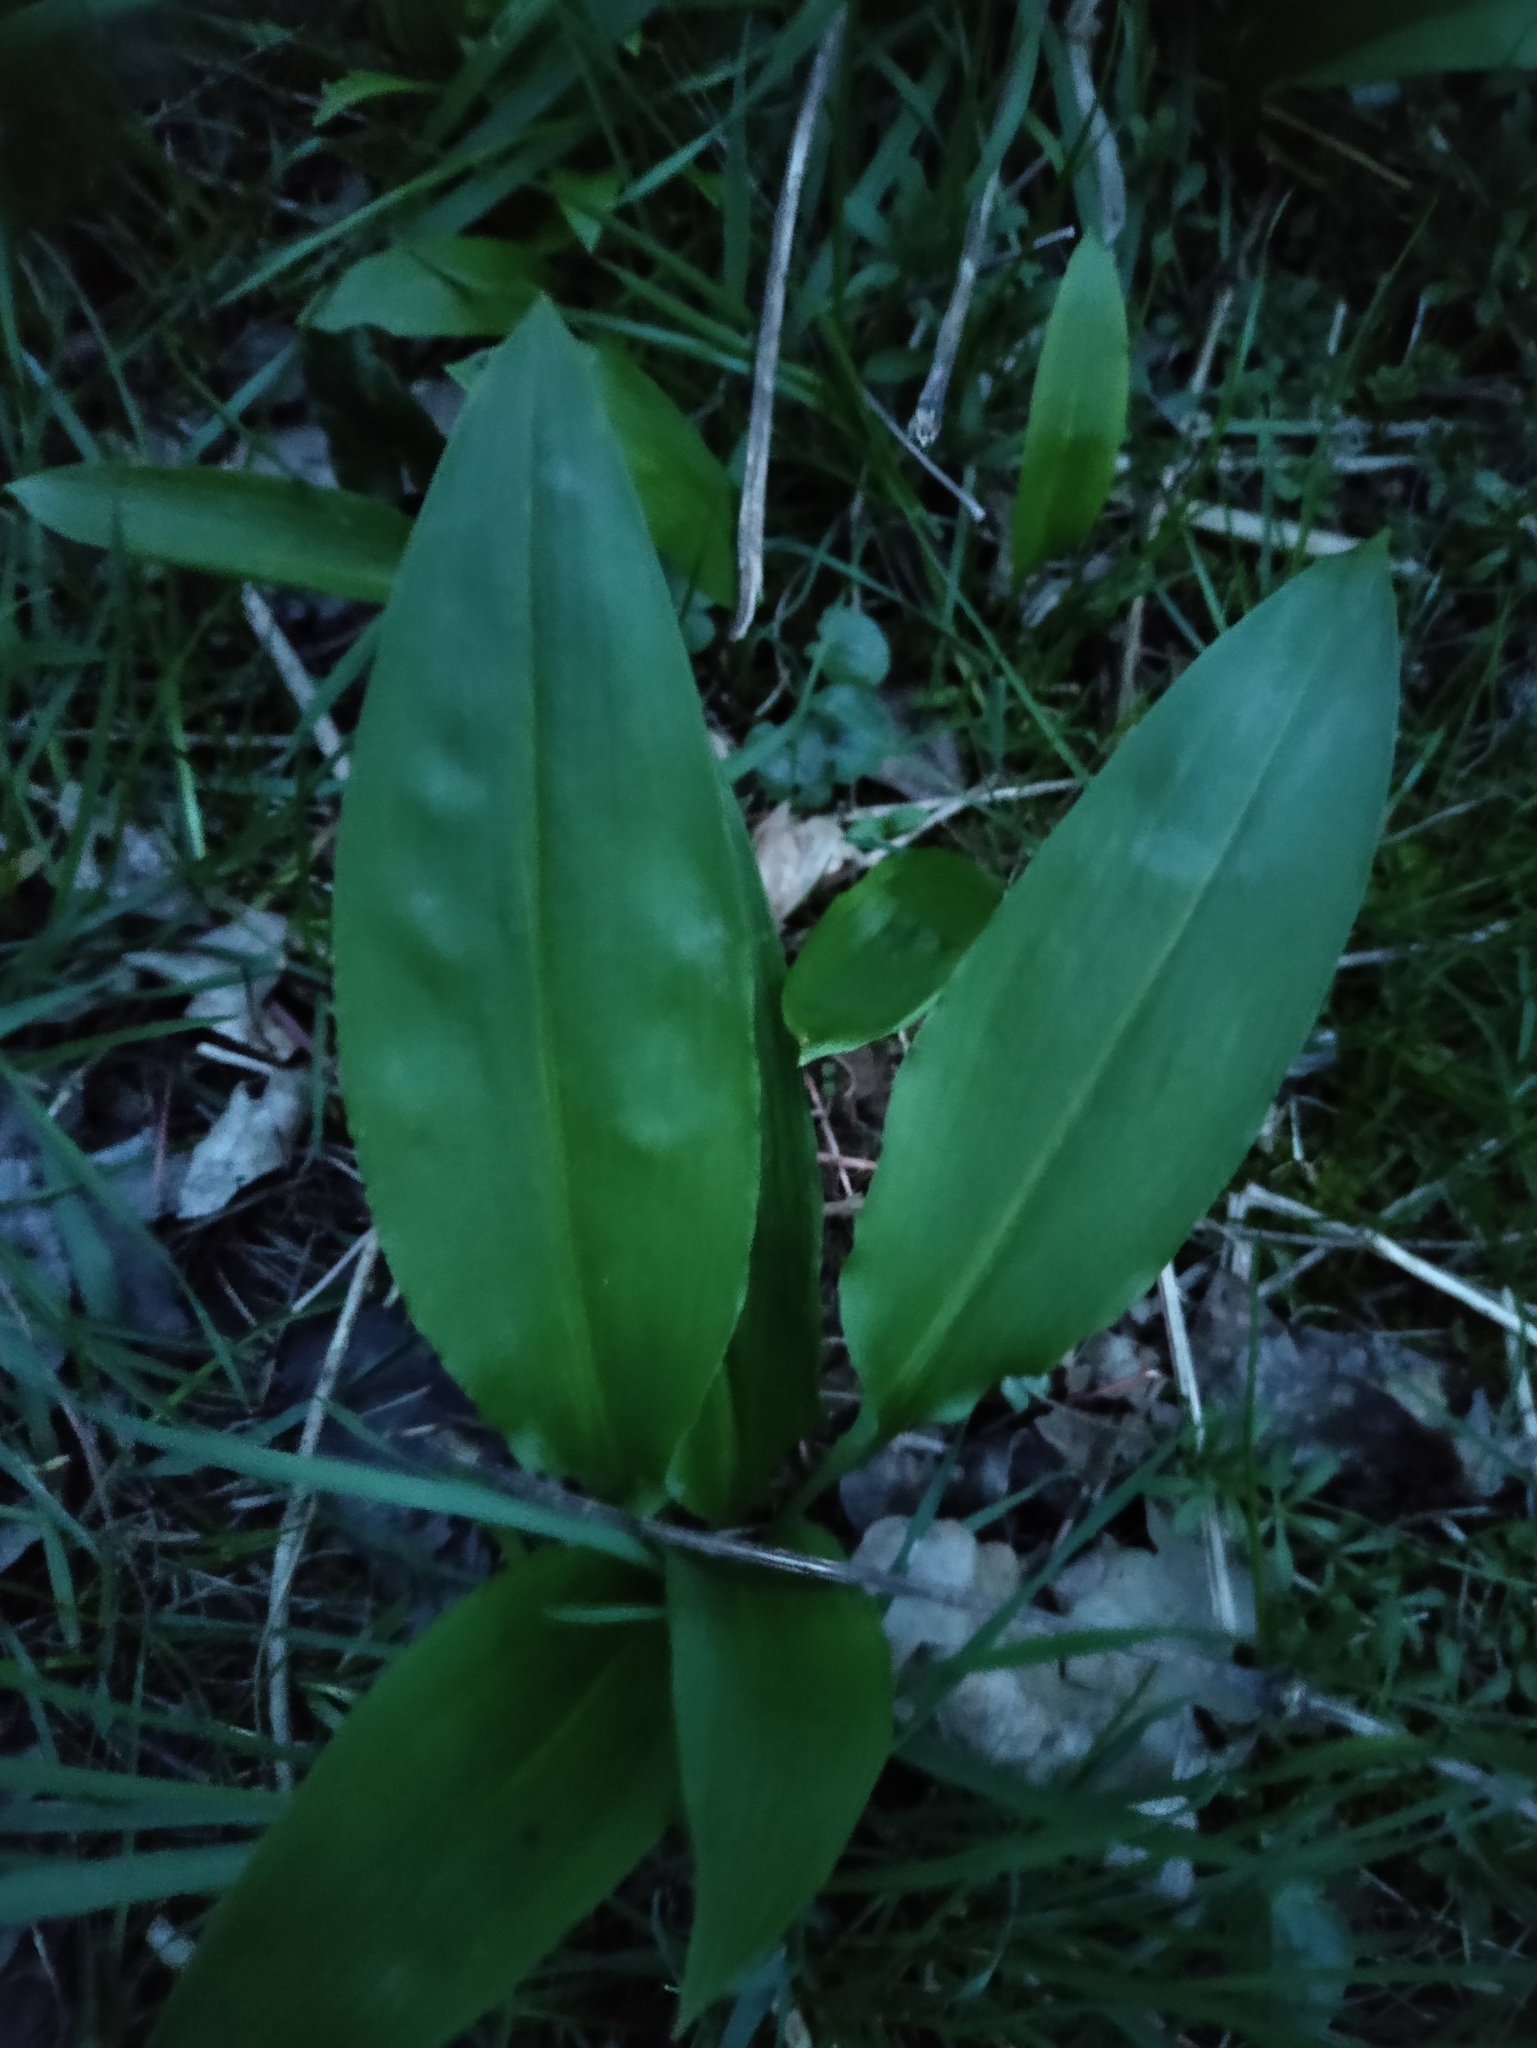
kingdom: Plantae
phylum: Tracheophyta
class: Liliopsida
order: Asparagales
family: Amaryllidaceae
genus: Allium
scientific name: Allium ursinum
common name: Ramsons
